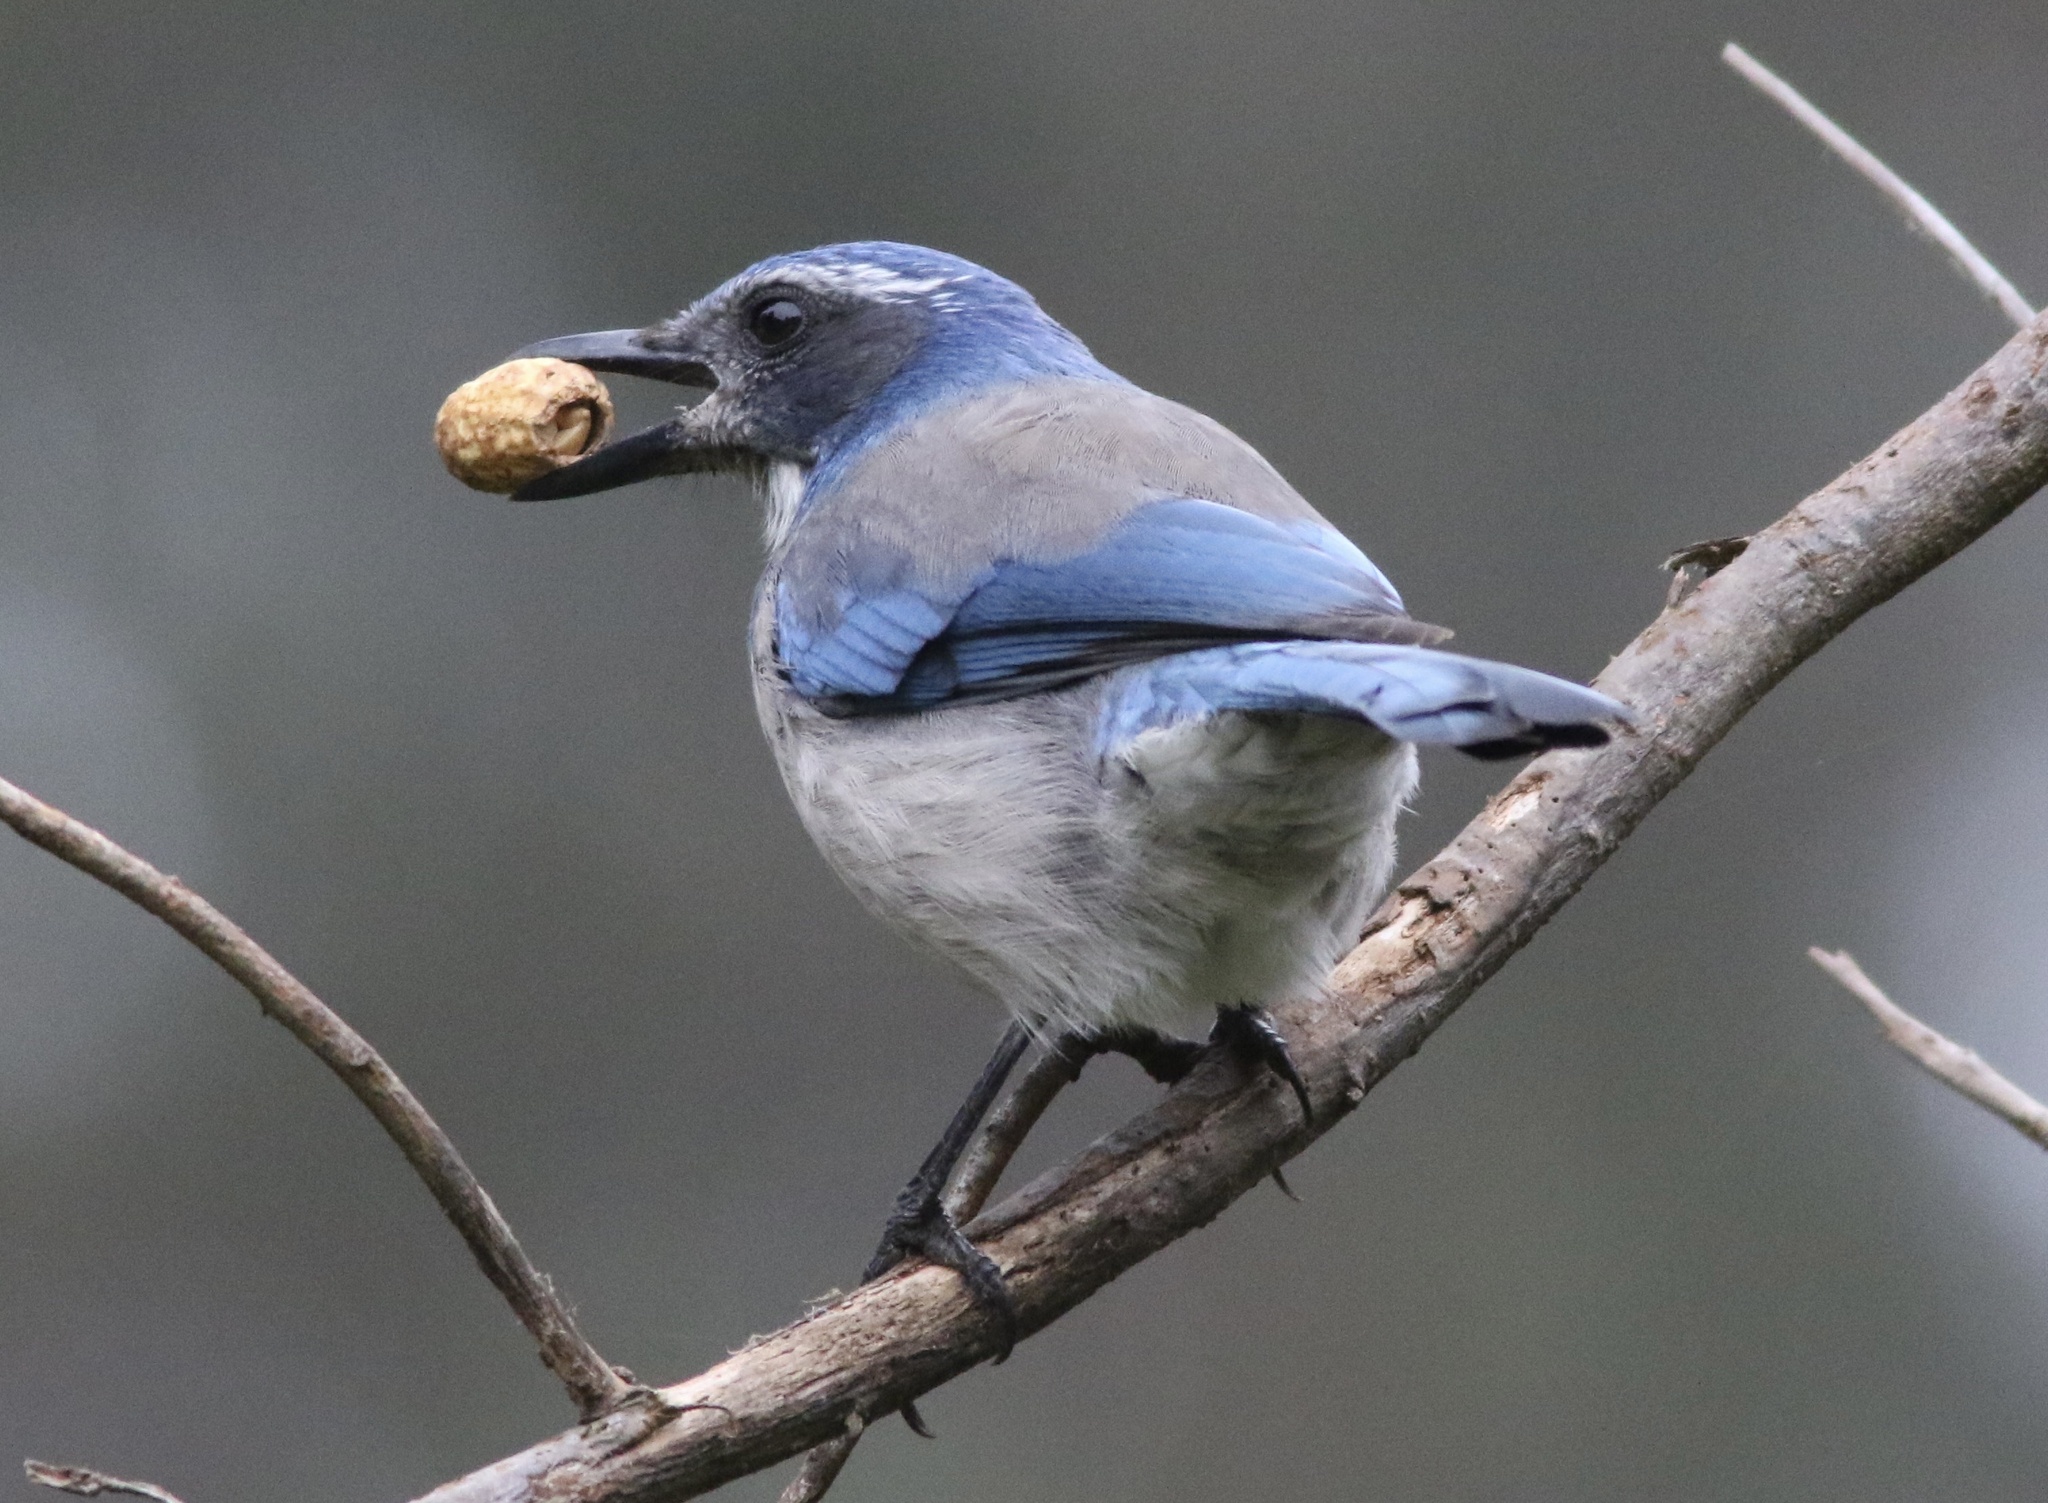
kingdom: Animalia
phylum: Chordata
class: Aves
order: Passeriformes
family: Corvidae
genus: Aphelocoma
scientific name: Aphelocoma californica
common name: California scrub-jay
